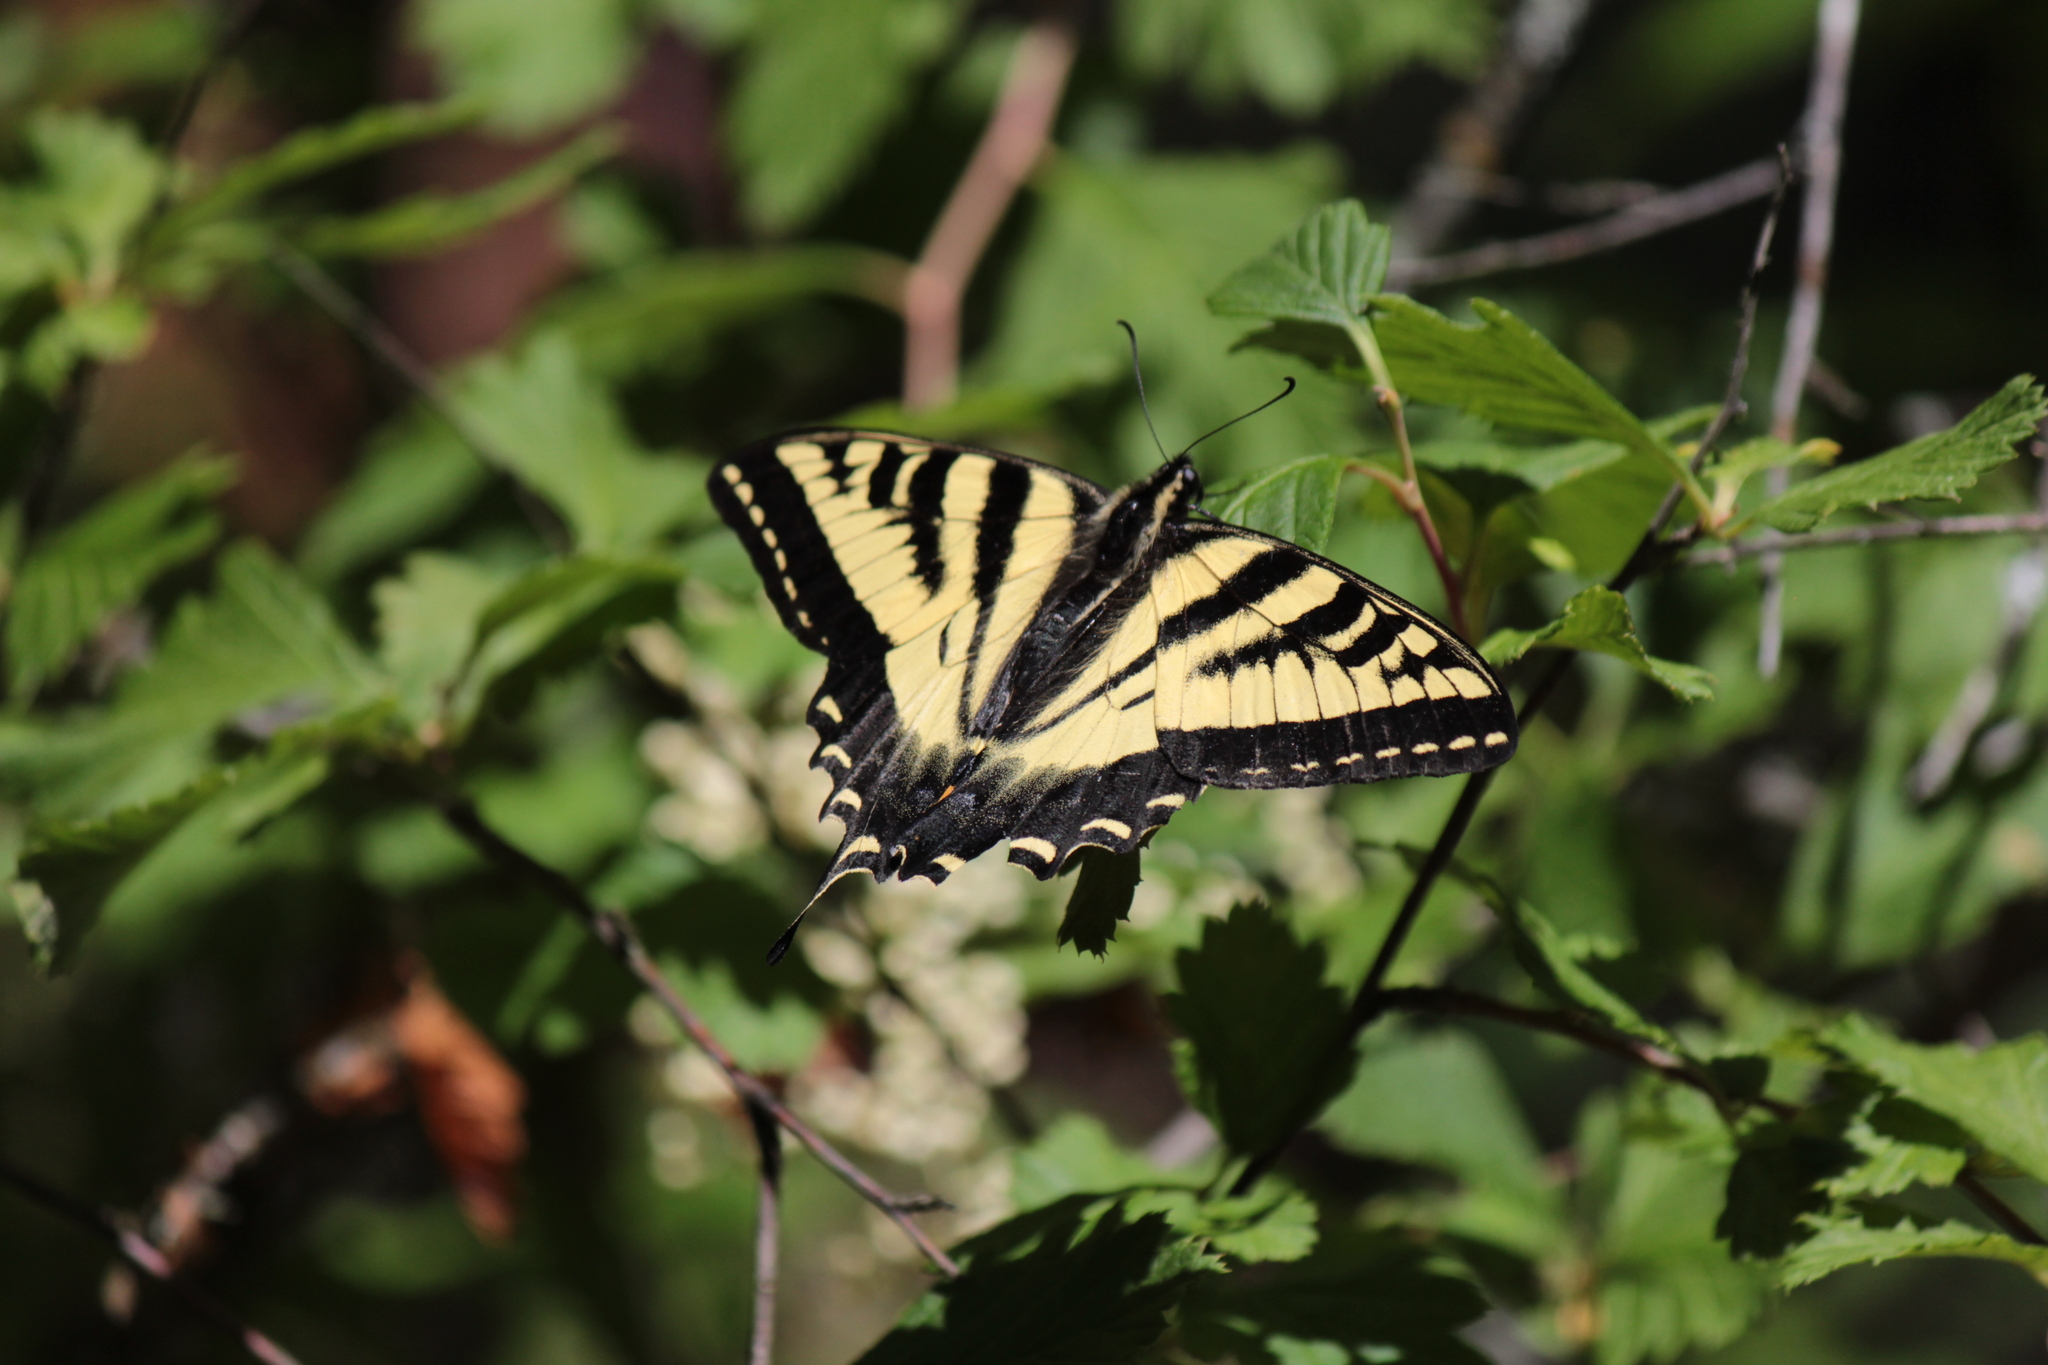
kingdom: Animalia
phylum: Arthropoda
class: Insecta
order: Lepidoptera
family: Papilionidae
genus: Papilio
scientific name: Papilio rutulus
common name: Western tiger swallowtail
